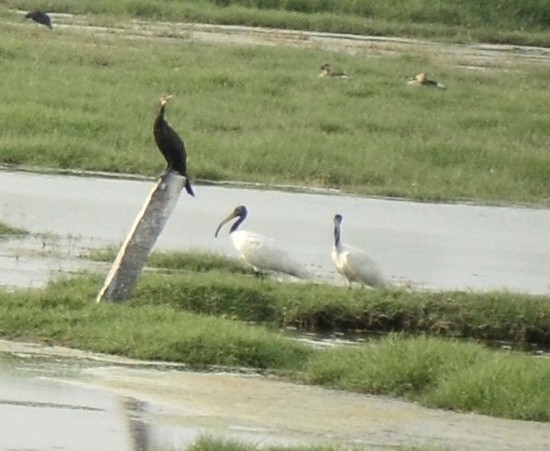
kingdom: Animalia
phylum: Chordata
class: Aves
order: Pelecaniformes
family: Threskiornithidae
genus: Threskiornis
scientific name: Threskiornis melanocephalus
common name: Black-headed ibis
